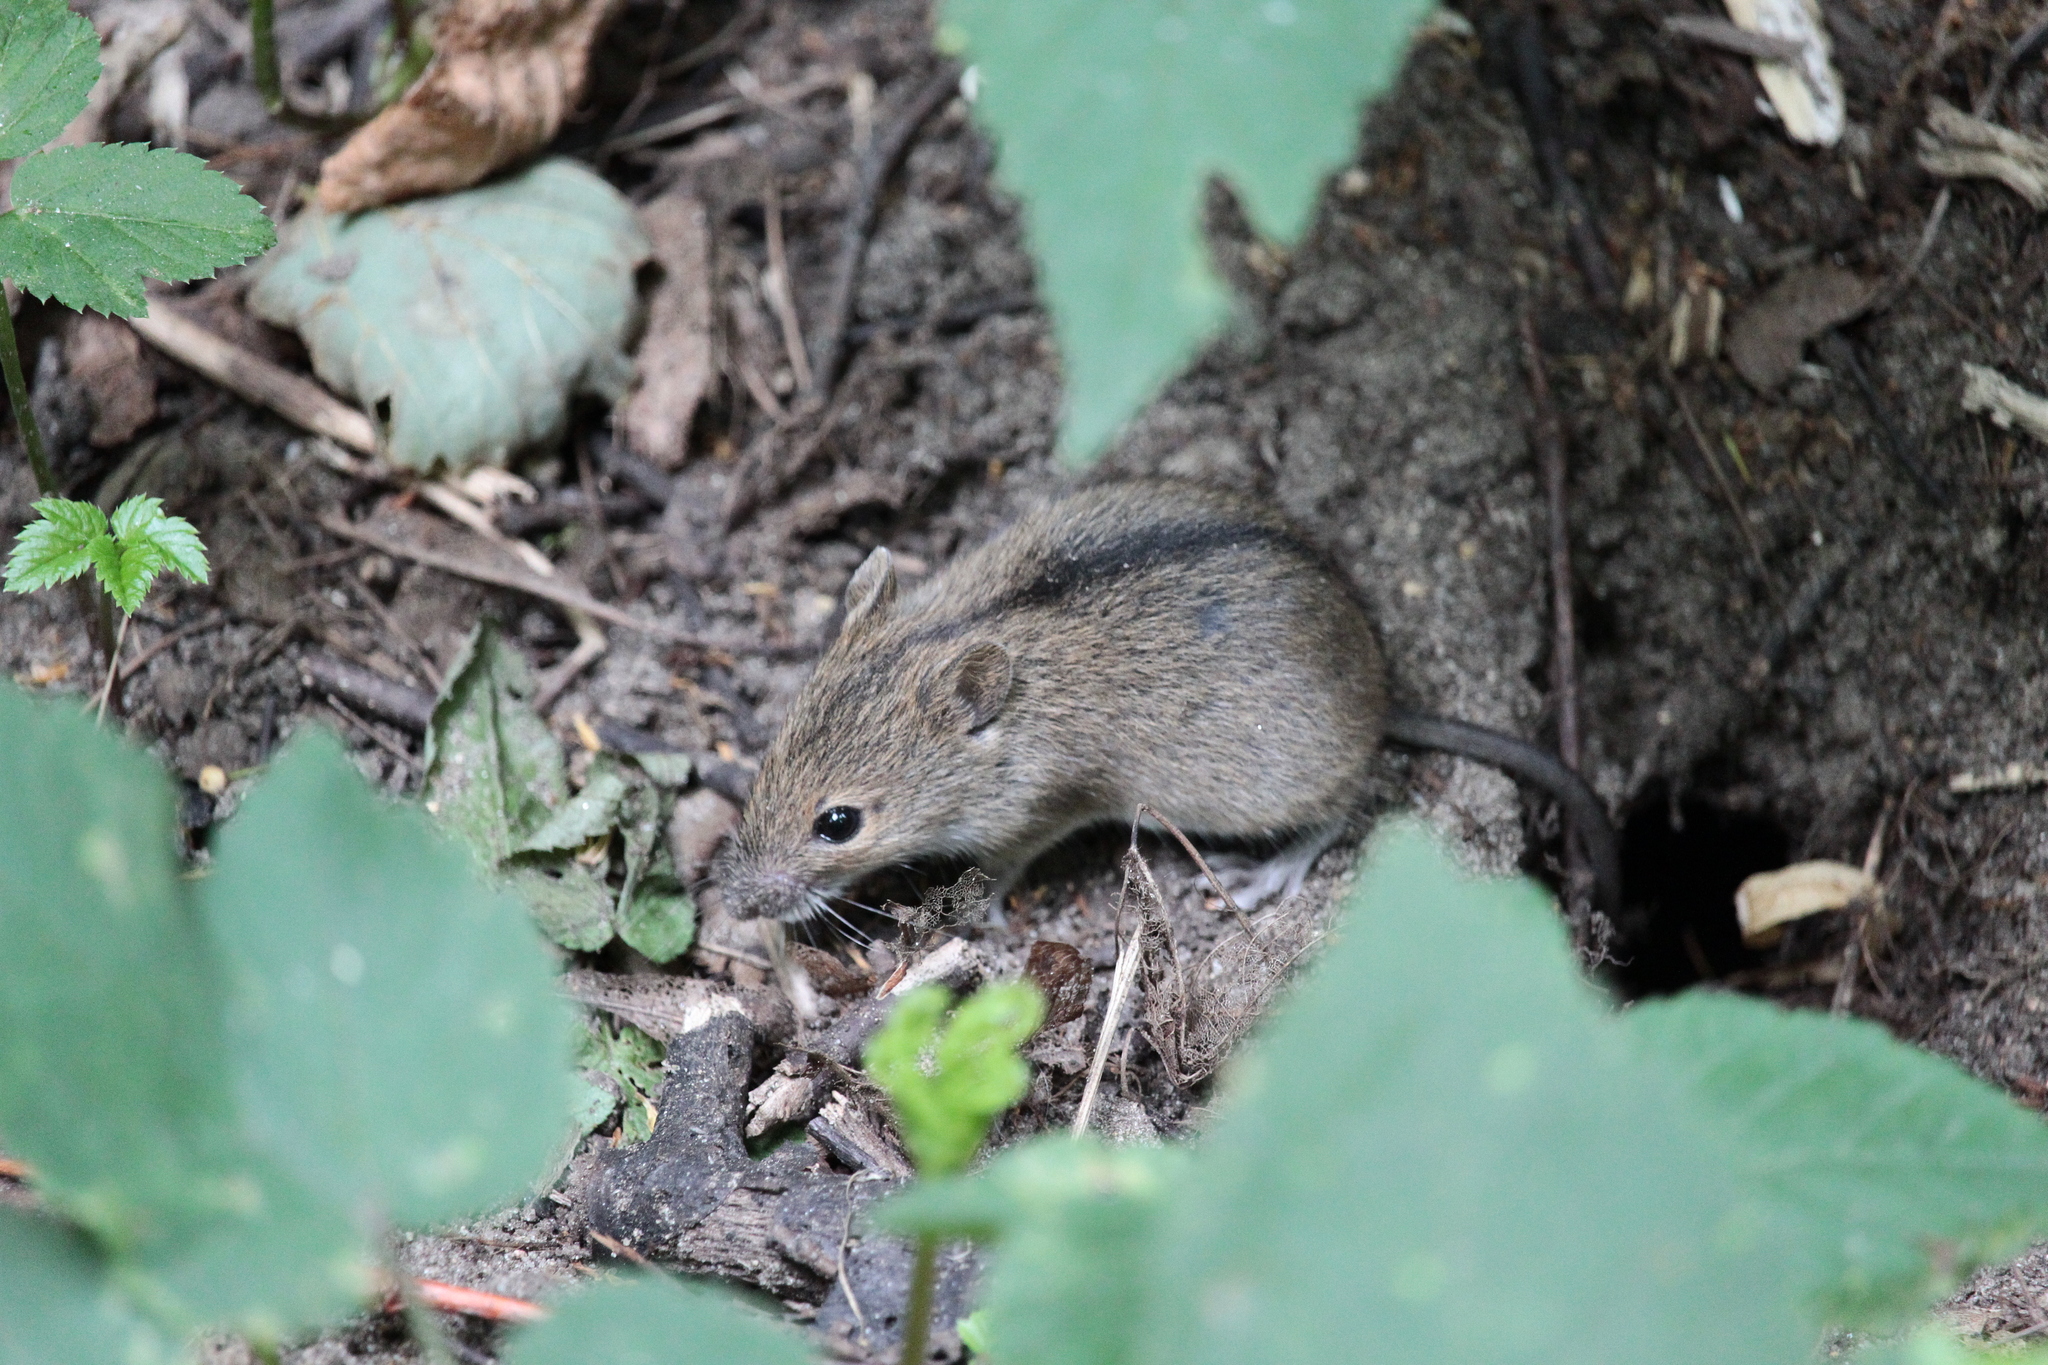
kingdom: Animalia
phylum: Chordata
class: Mammalia
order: Rodentia
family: Muridae
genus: Apodemus
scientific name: Apodemus agrarius
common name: Striped field mouse
